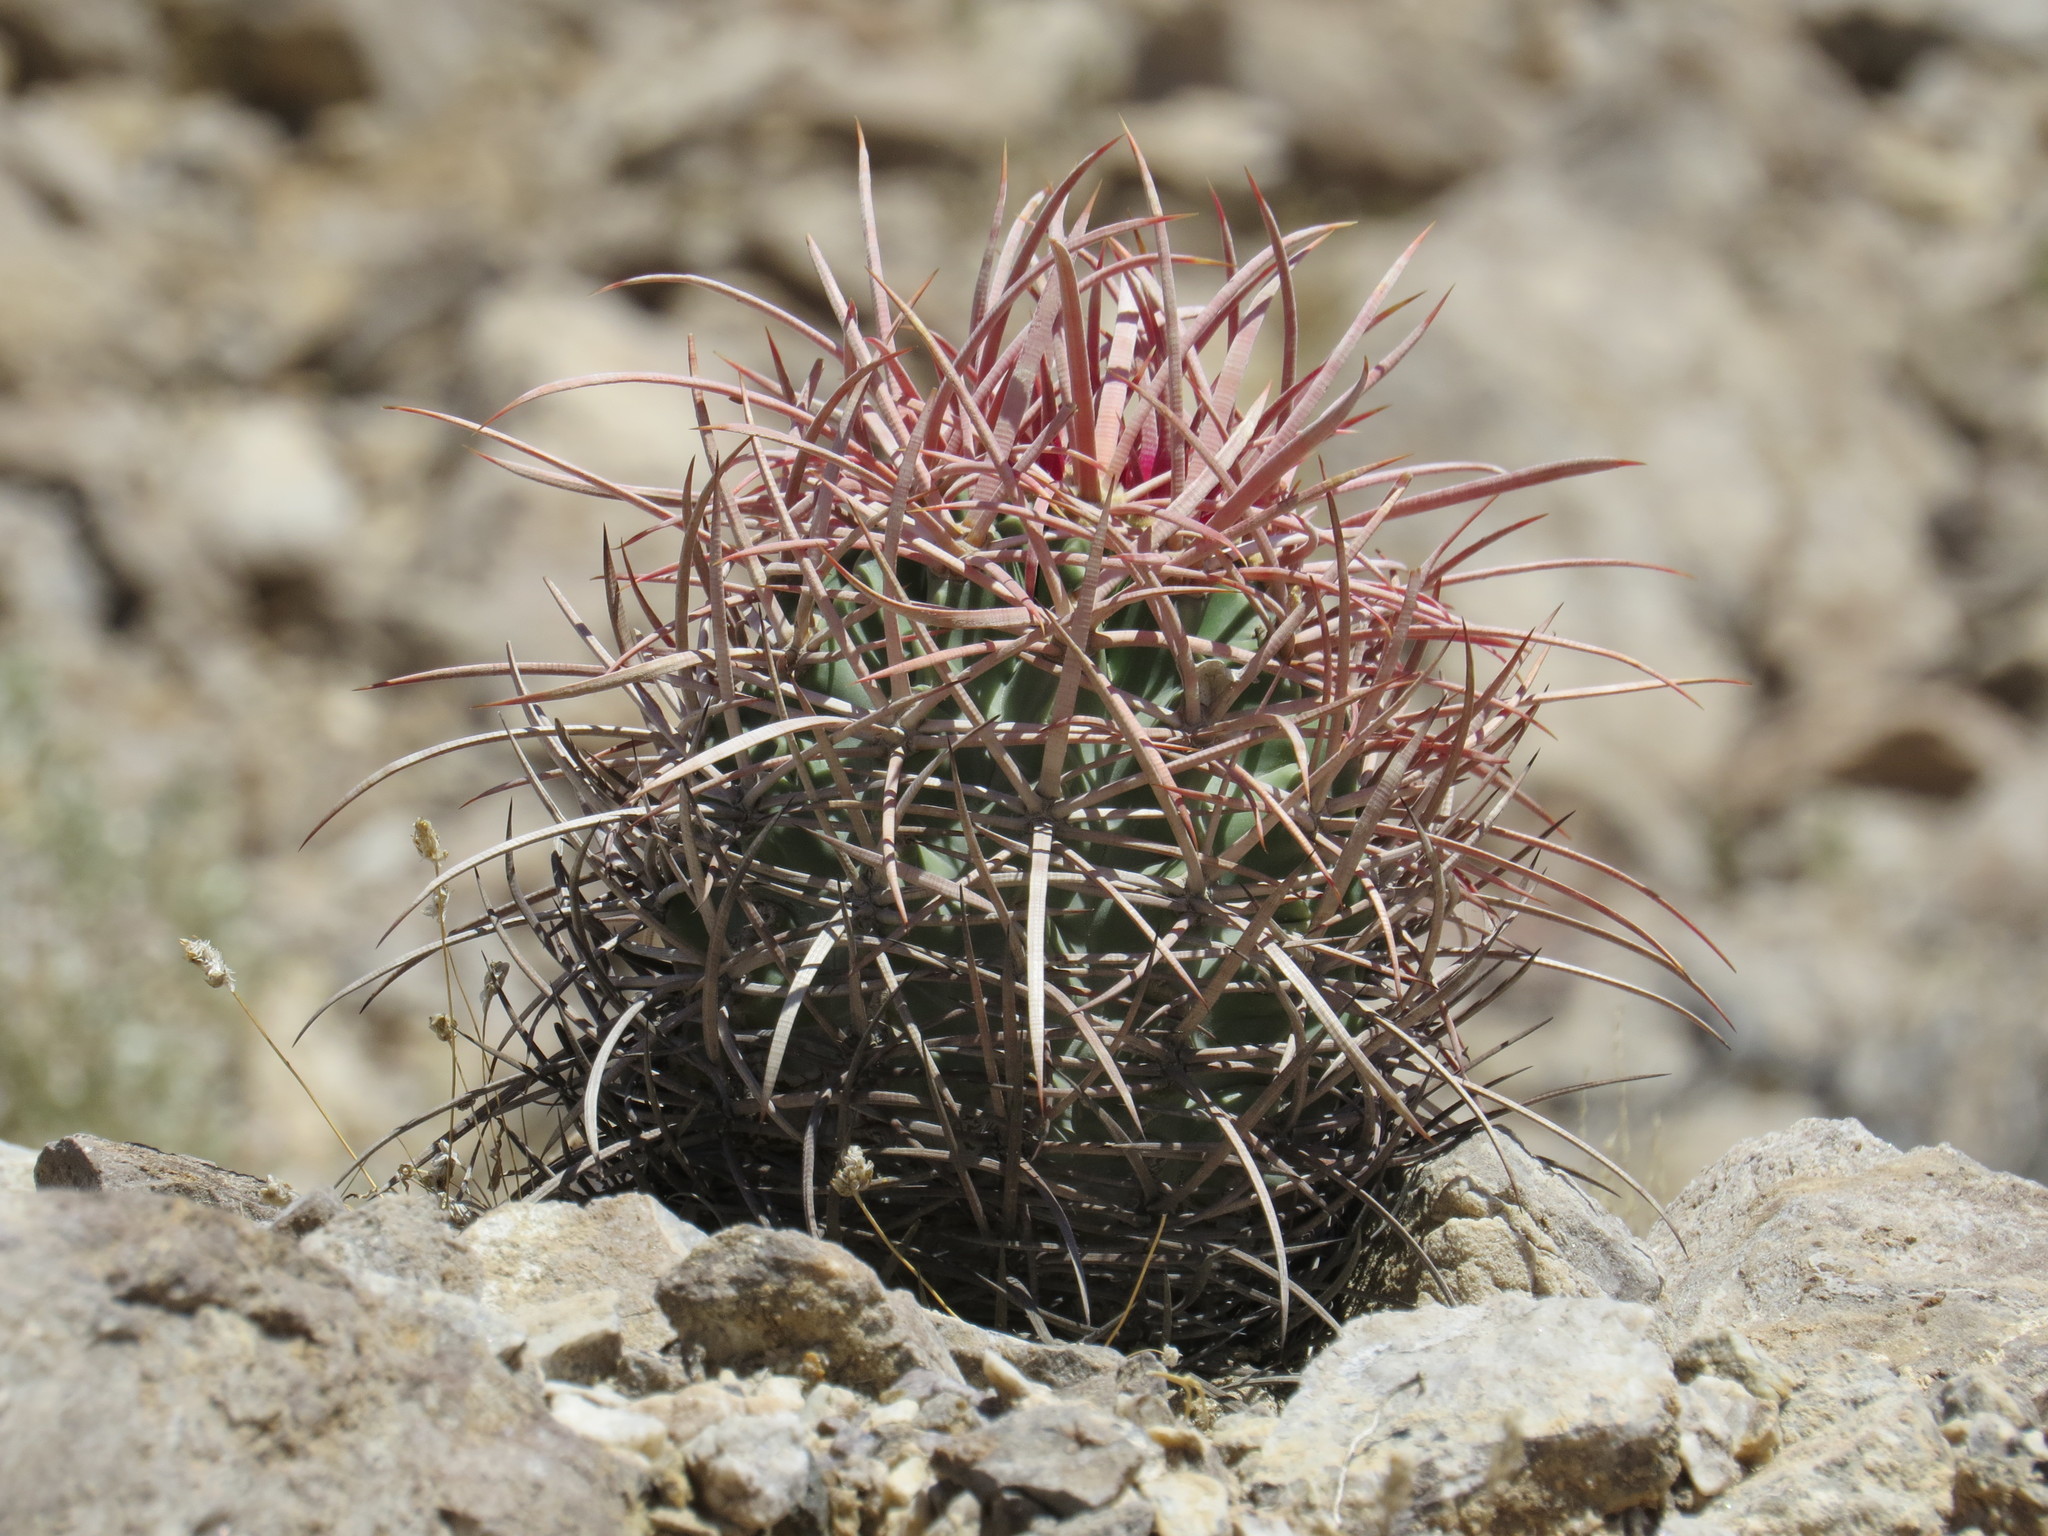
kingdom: Plantae
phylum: Tracheophyta
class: Magnoliopsida
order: Caryophyllales
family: Cactaceae
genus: Echinocactus
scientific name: Echinocactus polycephalus
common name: Cottontop cactus
